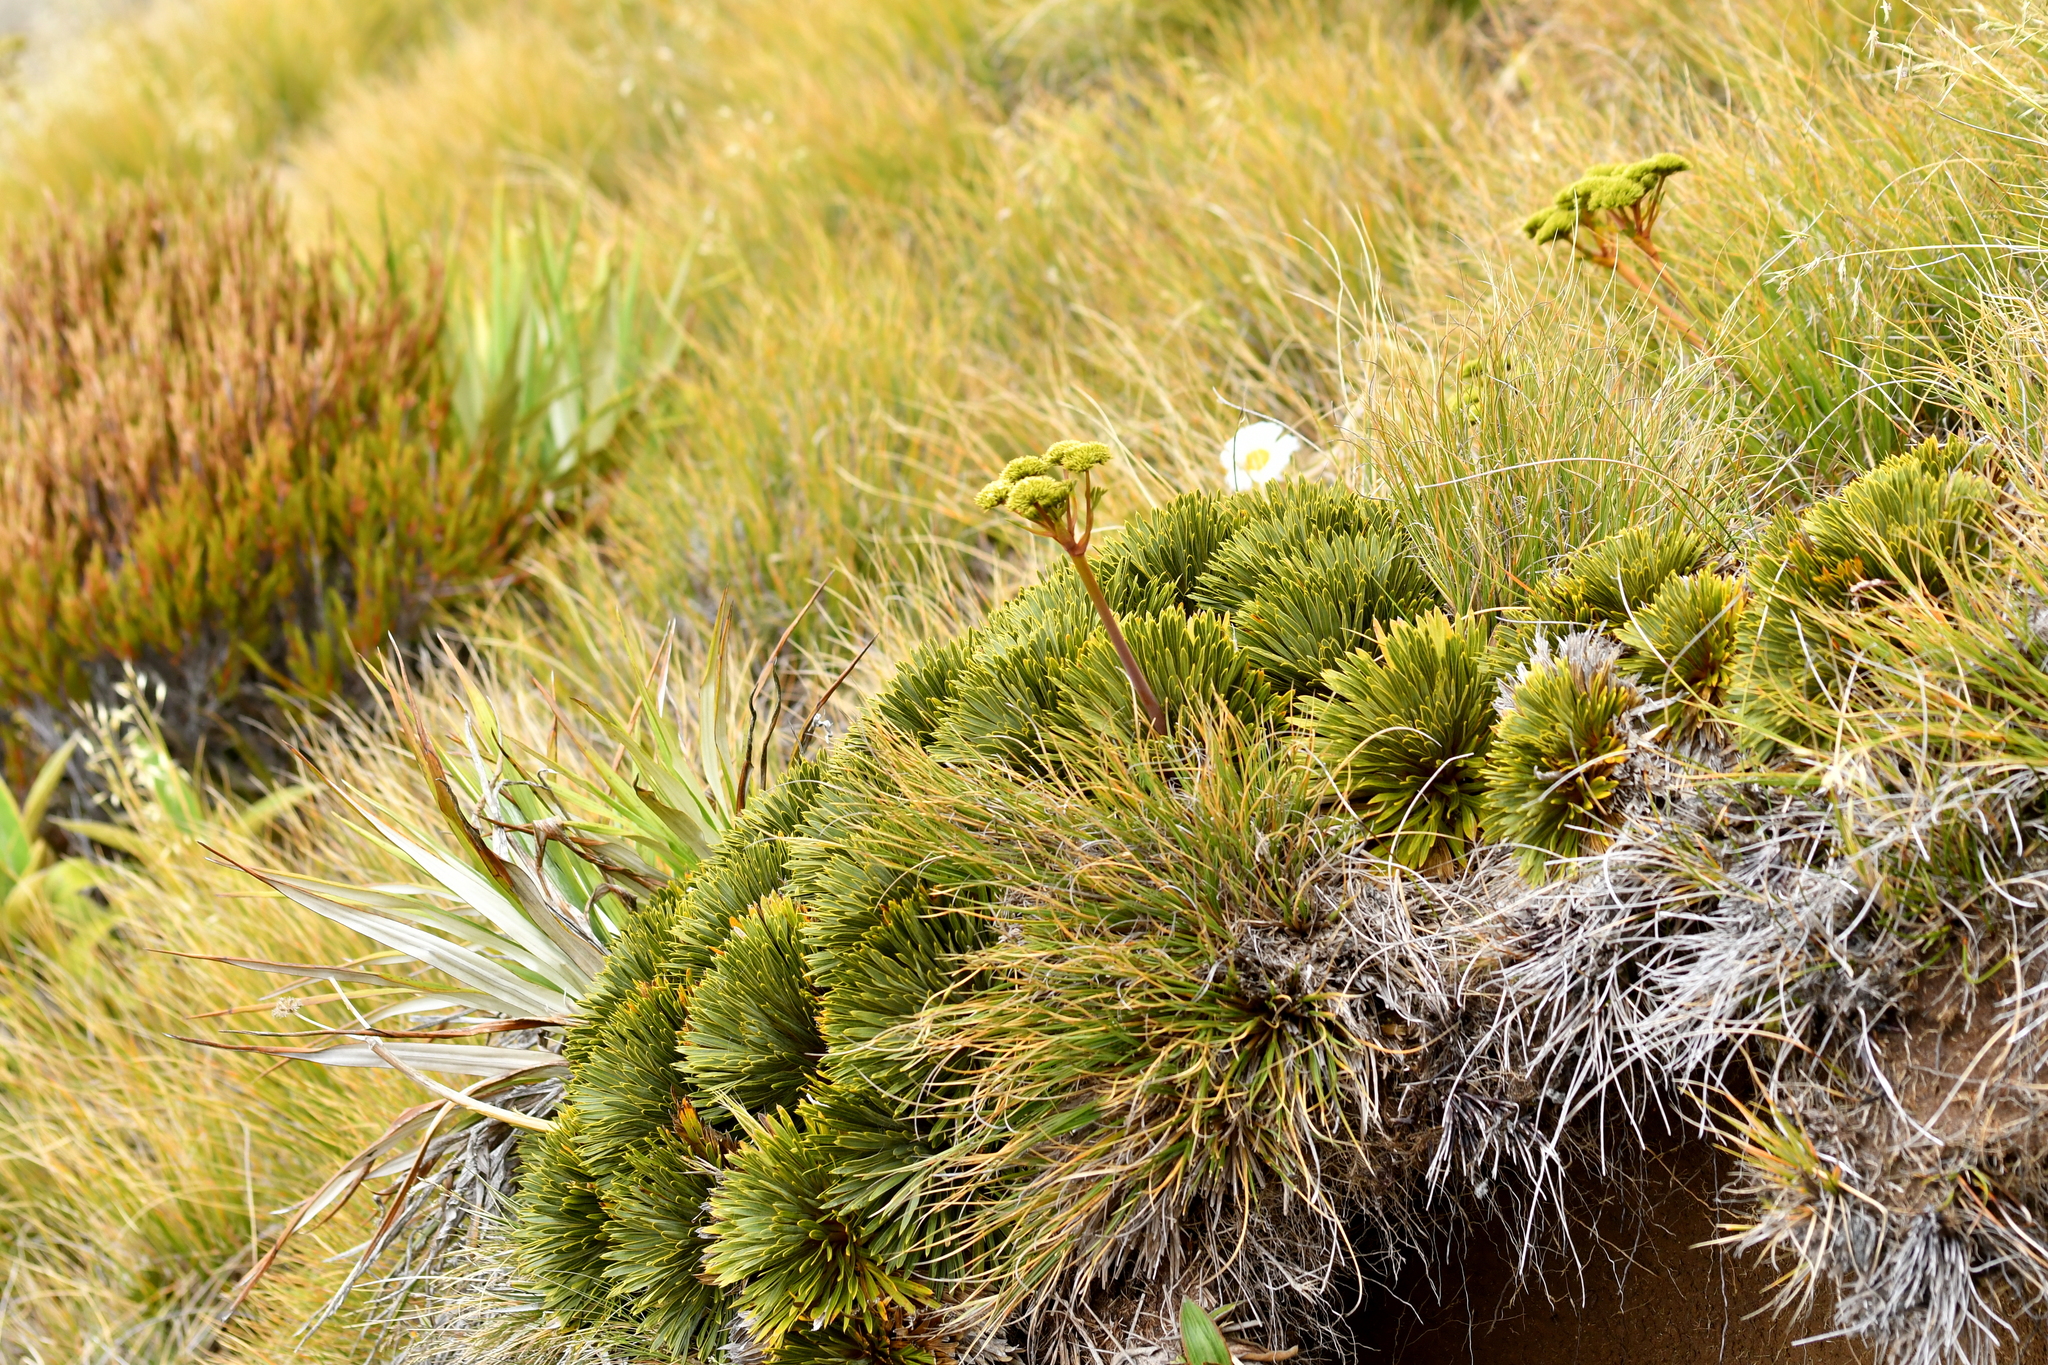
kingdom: Plantae
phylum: Tracheophyta
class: Magnoliopsida
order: Apiales
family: Apiaceae
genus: Aciphylla
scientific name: Aciphylla crosby-smithii
